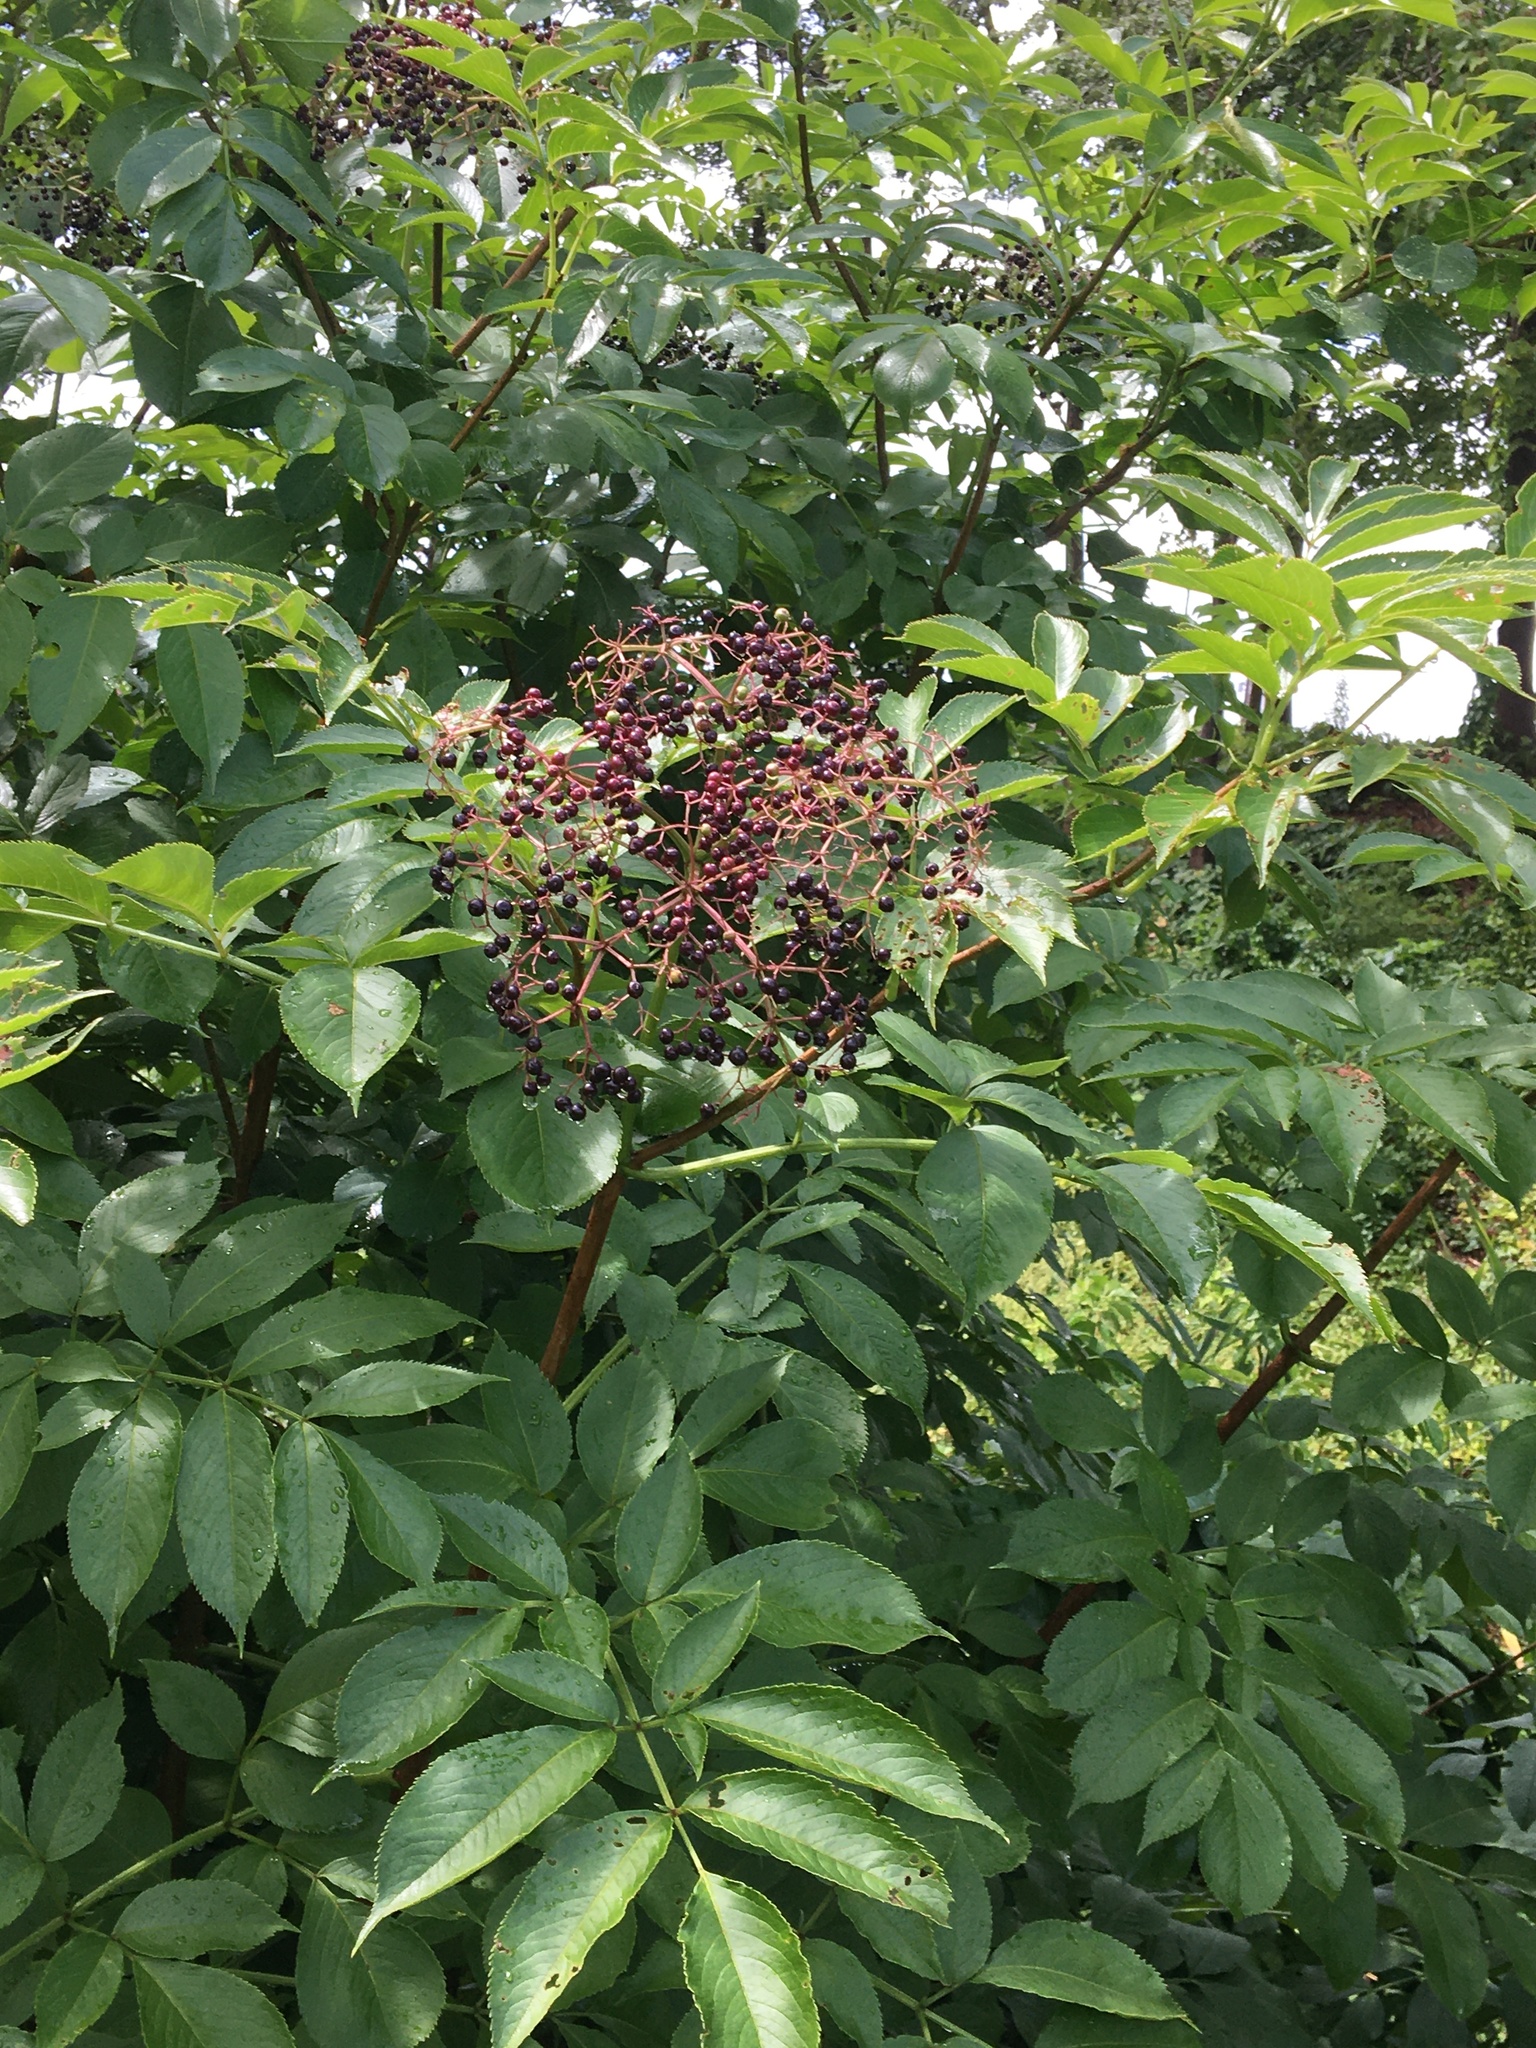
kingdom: Plantae
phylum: Tracheophyta
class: Magnoliopsida
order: Dipsacales
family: Viburnaceae
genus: Sambucus
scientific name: Sambucus canadensis
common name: American elder
